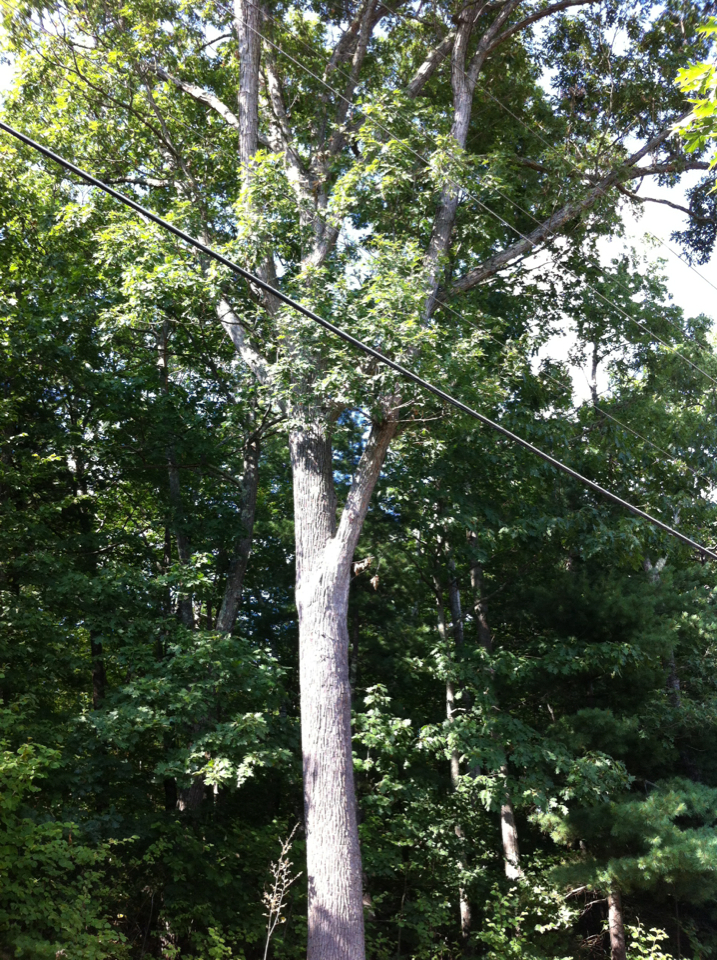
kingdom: Plantae
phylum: Tracheophyta
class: Magnoliopsida
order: Fagales
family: Fagaceae
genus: Quercus
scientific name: Quercus alba
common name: White oak
